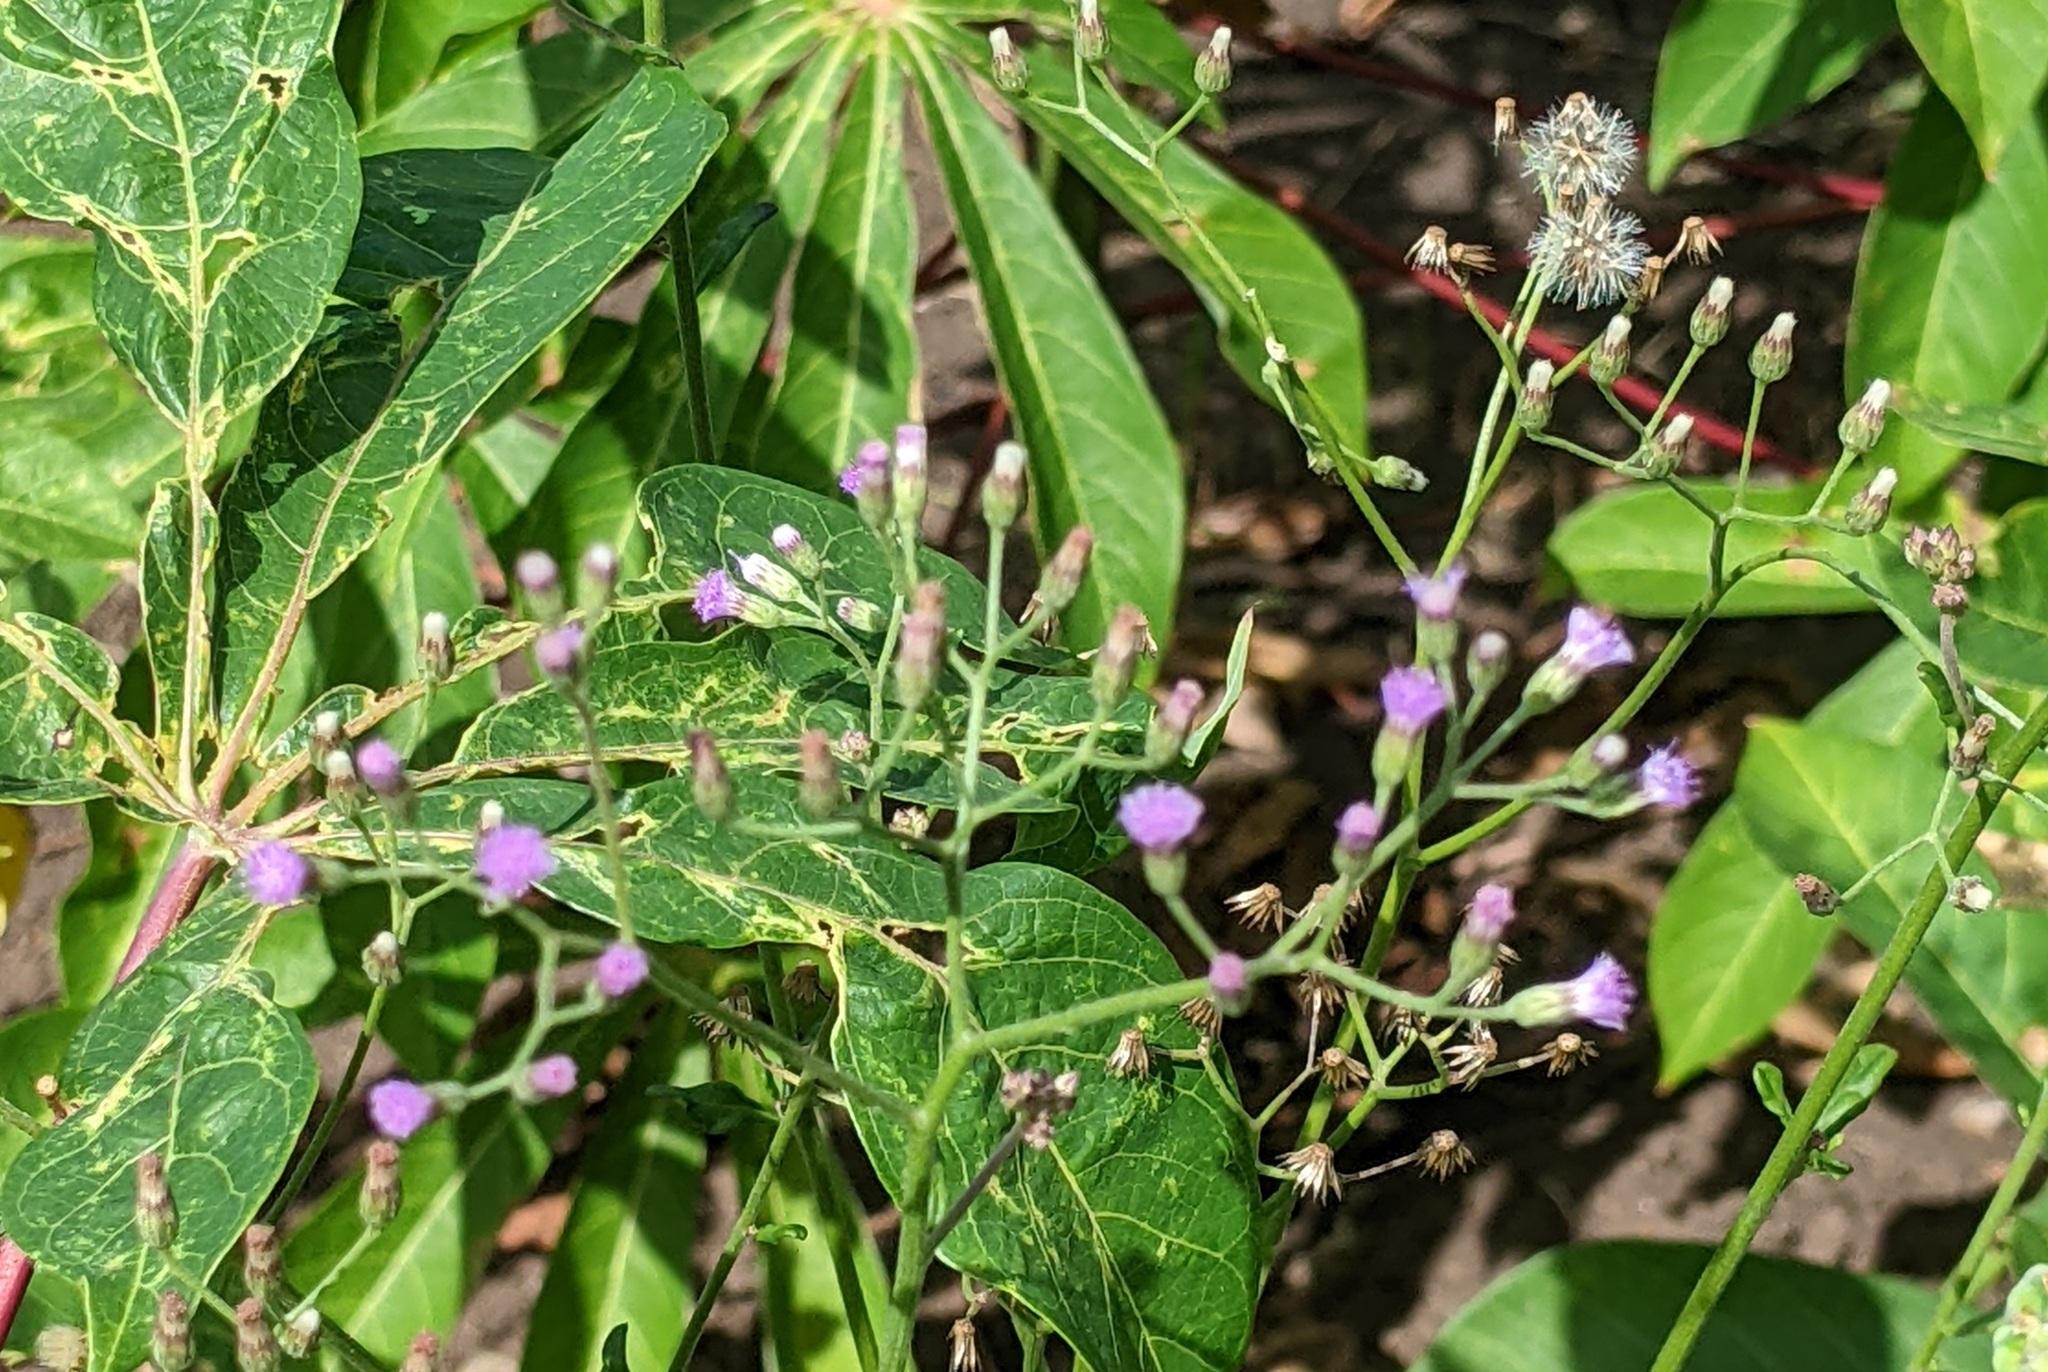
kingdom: Plantae
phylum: Tracheophyta
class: Magnoliopsida
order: Asterales
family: Asteraceae
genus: Cyanthillium
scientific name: Cyanthillium cinereum
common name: Little ironweed
